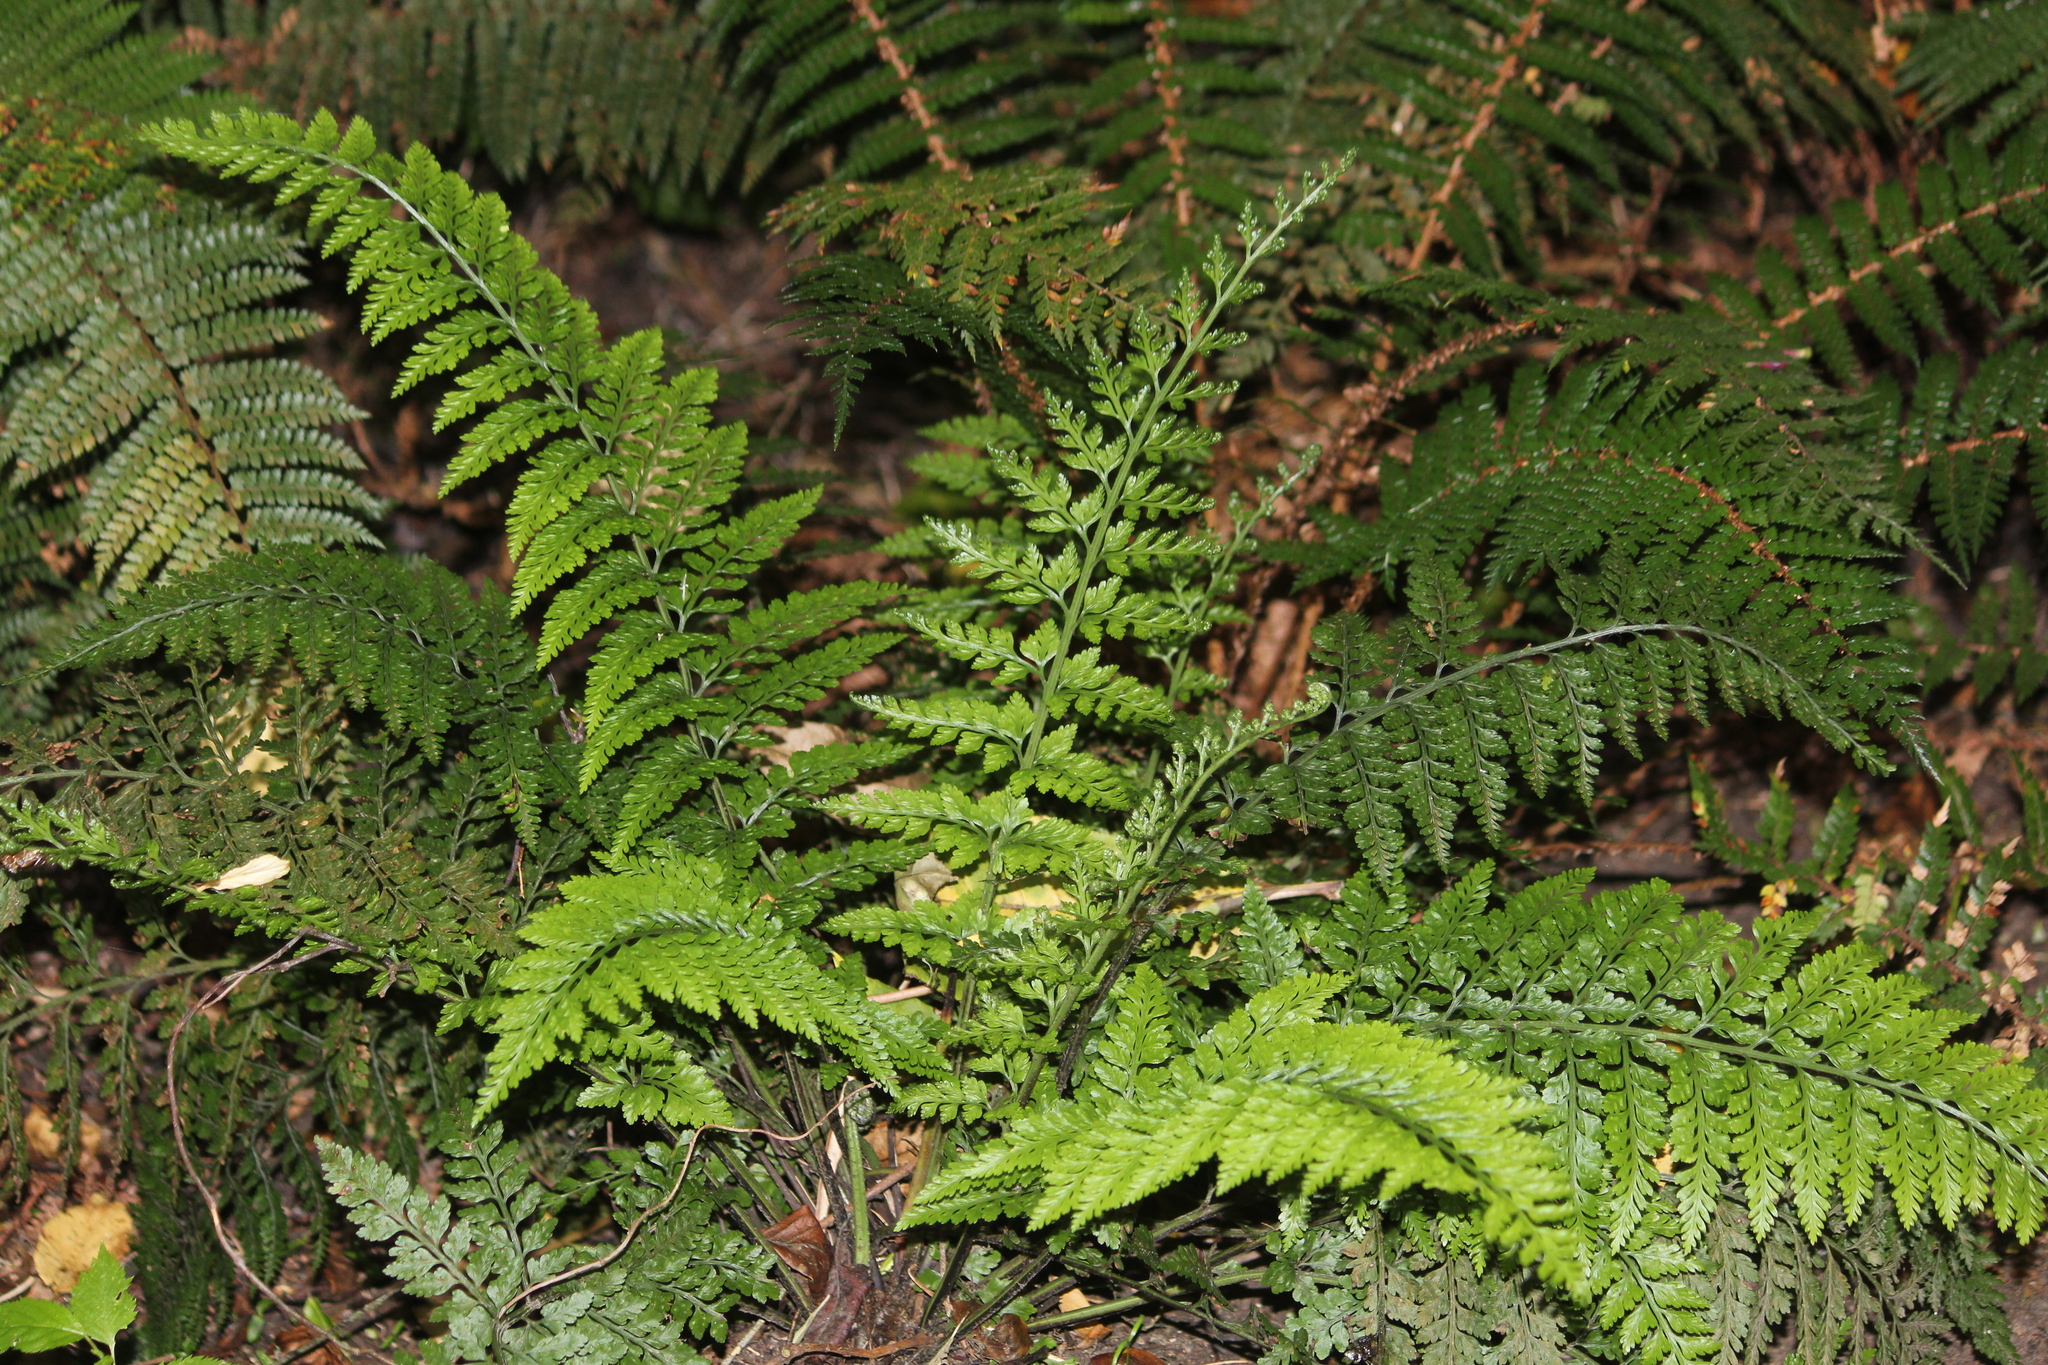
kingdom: Plantae
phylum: Tracheophyta
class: Polypodiopsida
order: Polypodiales
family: Aspleniaceae
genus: Asplenium
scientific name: Asplenium
